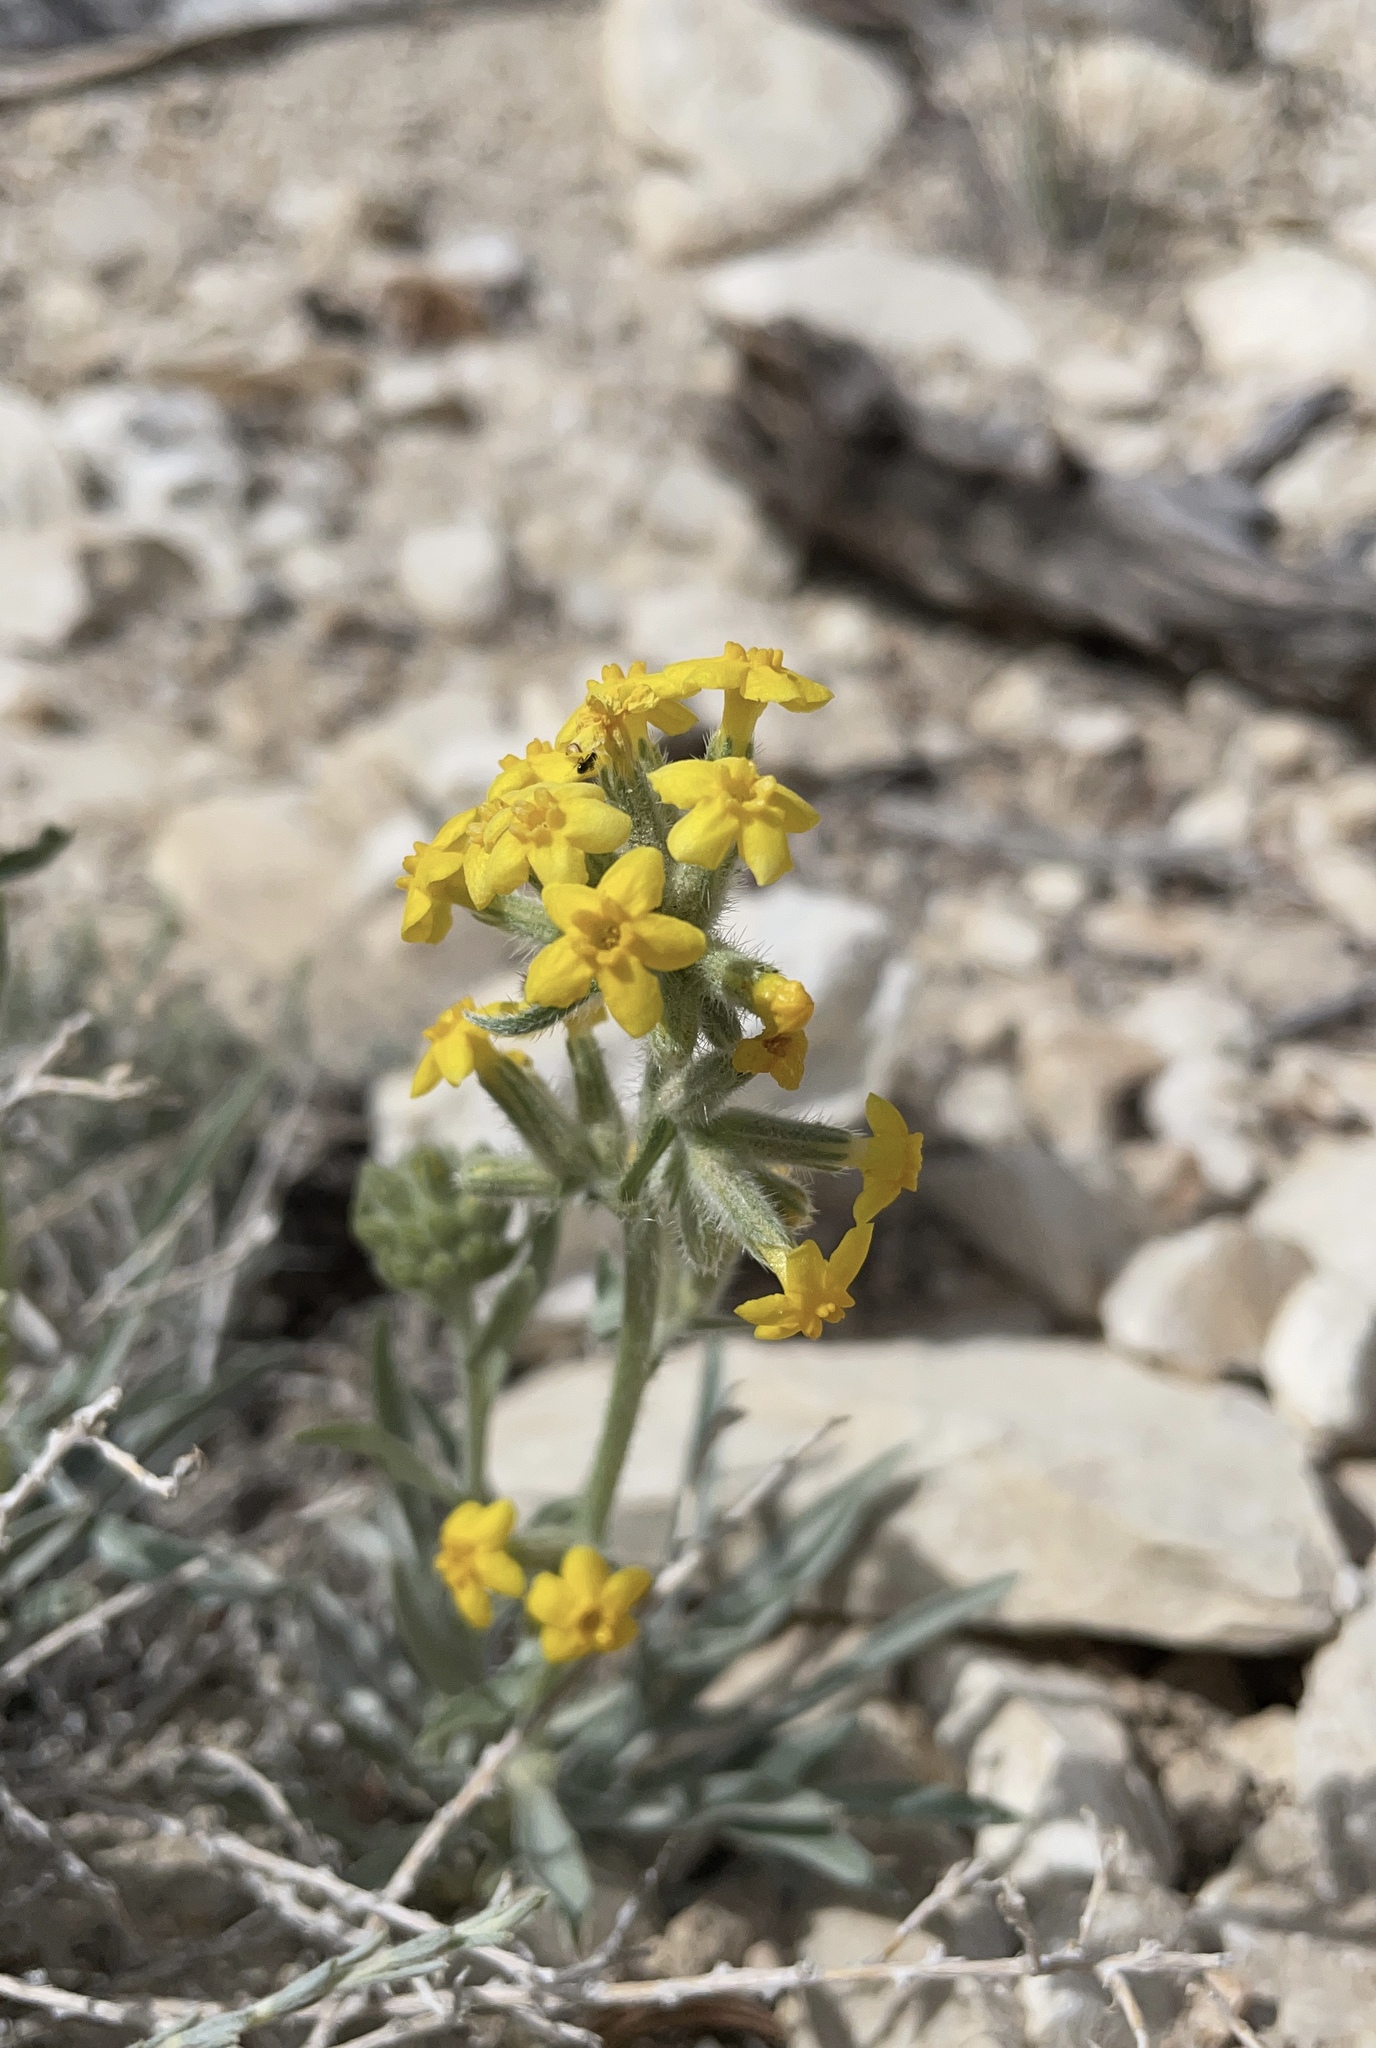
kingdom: Plantae
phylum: Tracheophyta
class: Magnoliopsida
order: Boraginales
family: Boraginaceae
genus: Oreocarya
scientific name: Oreocarya confertiflora
